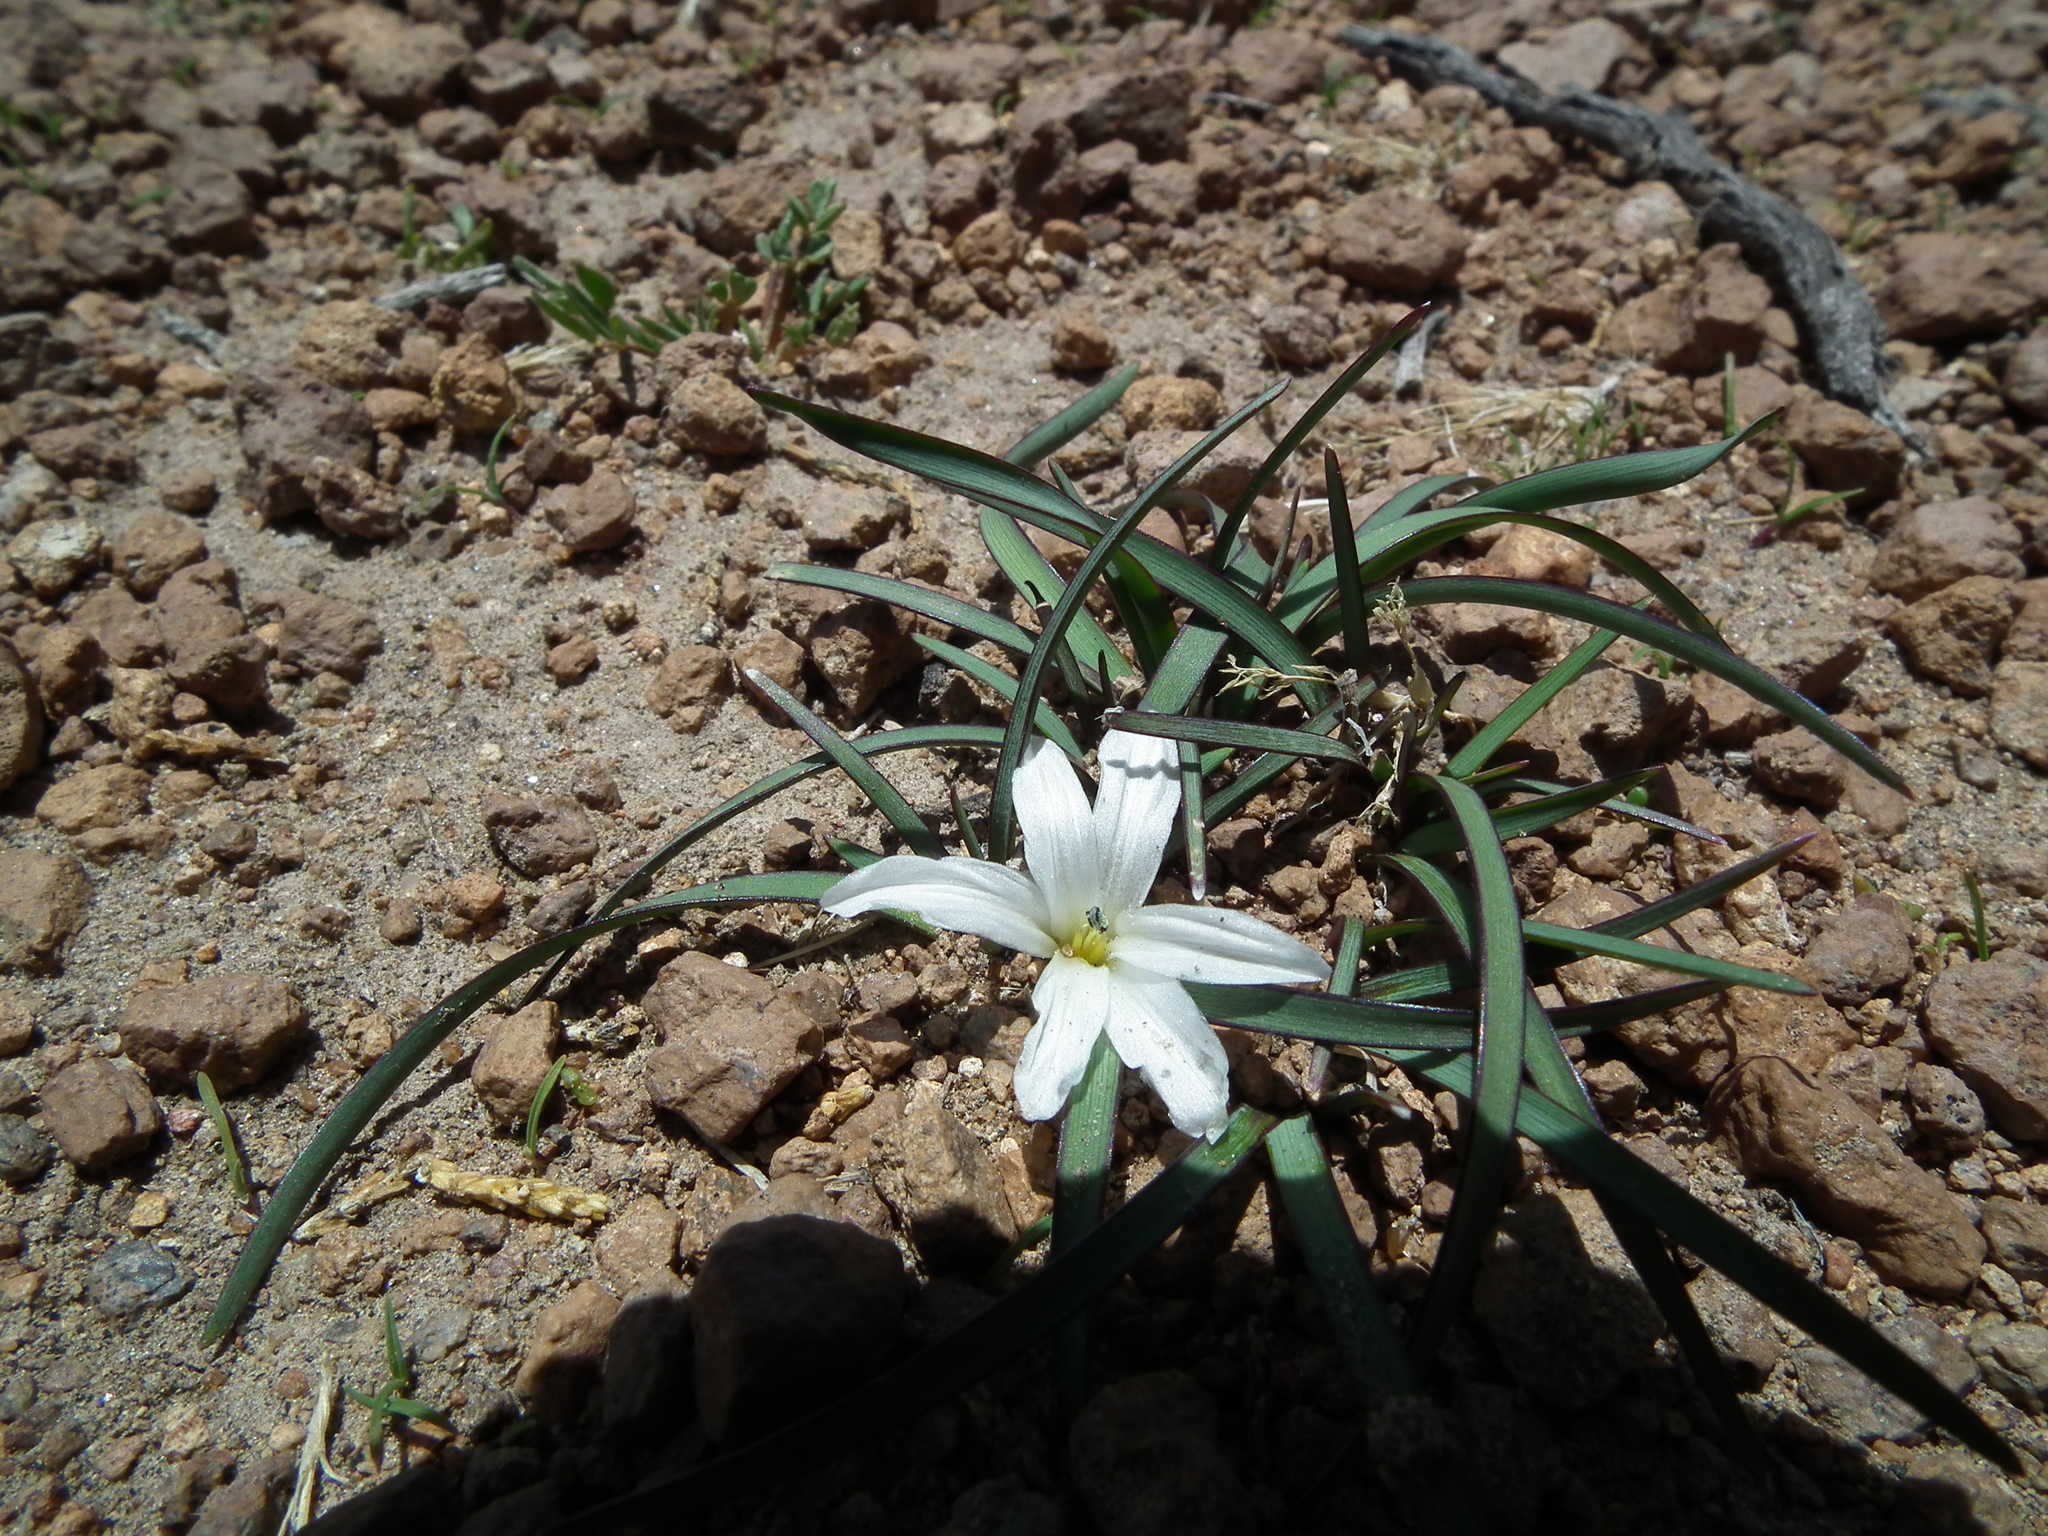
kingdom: Plantae
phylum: Tracheophyta
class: Liliopsida
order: Asparagales
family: Iridaceae
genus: Olsynium
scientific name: Olsynium acaule
